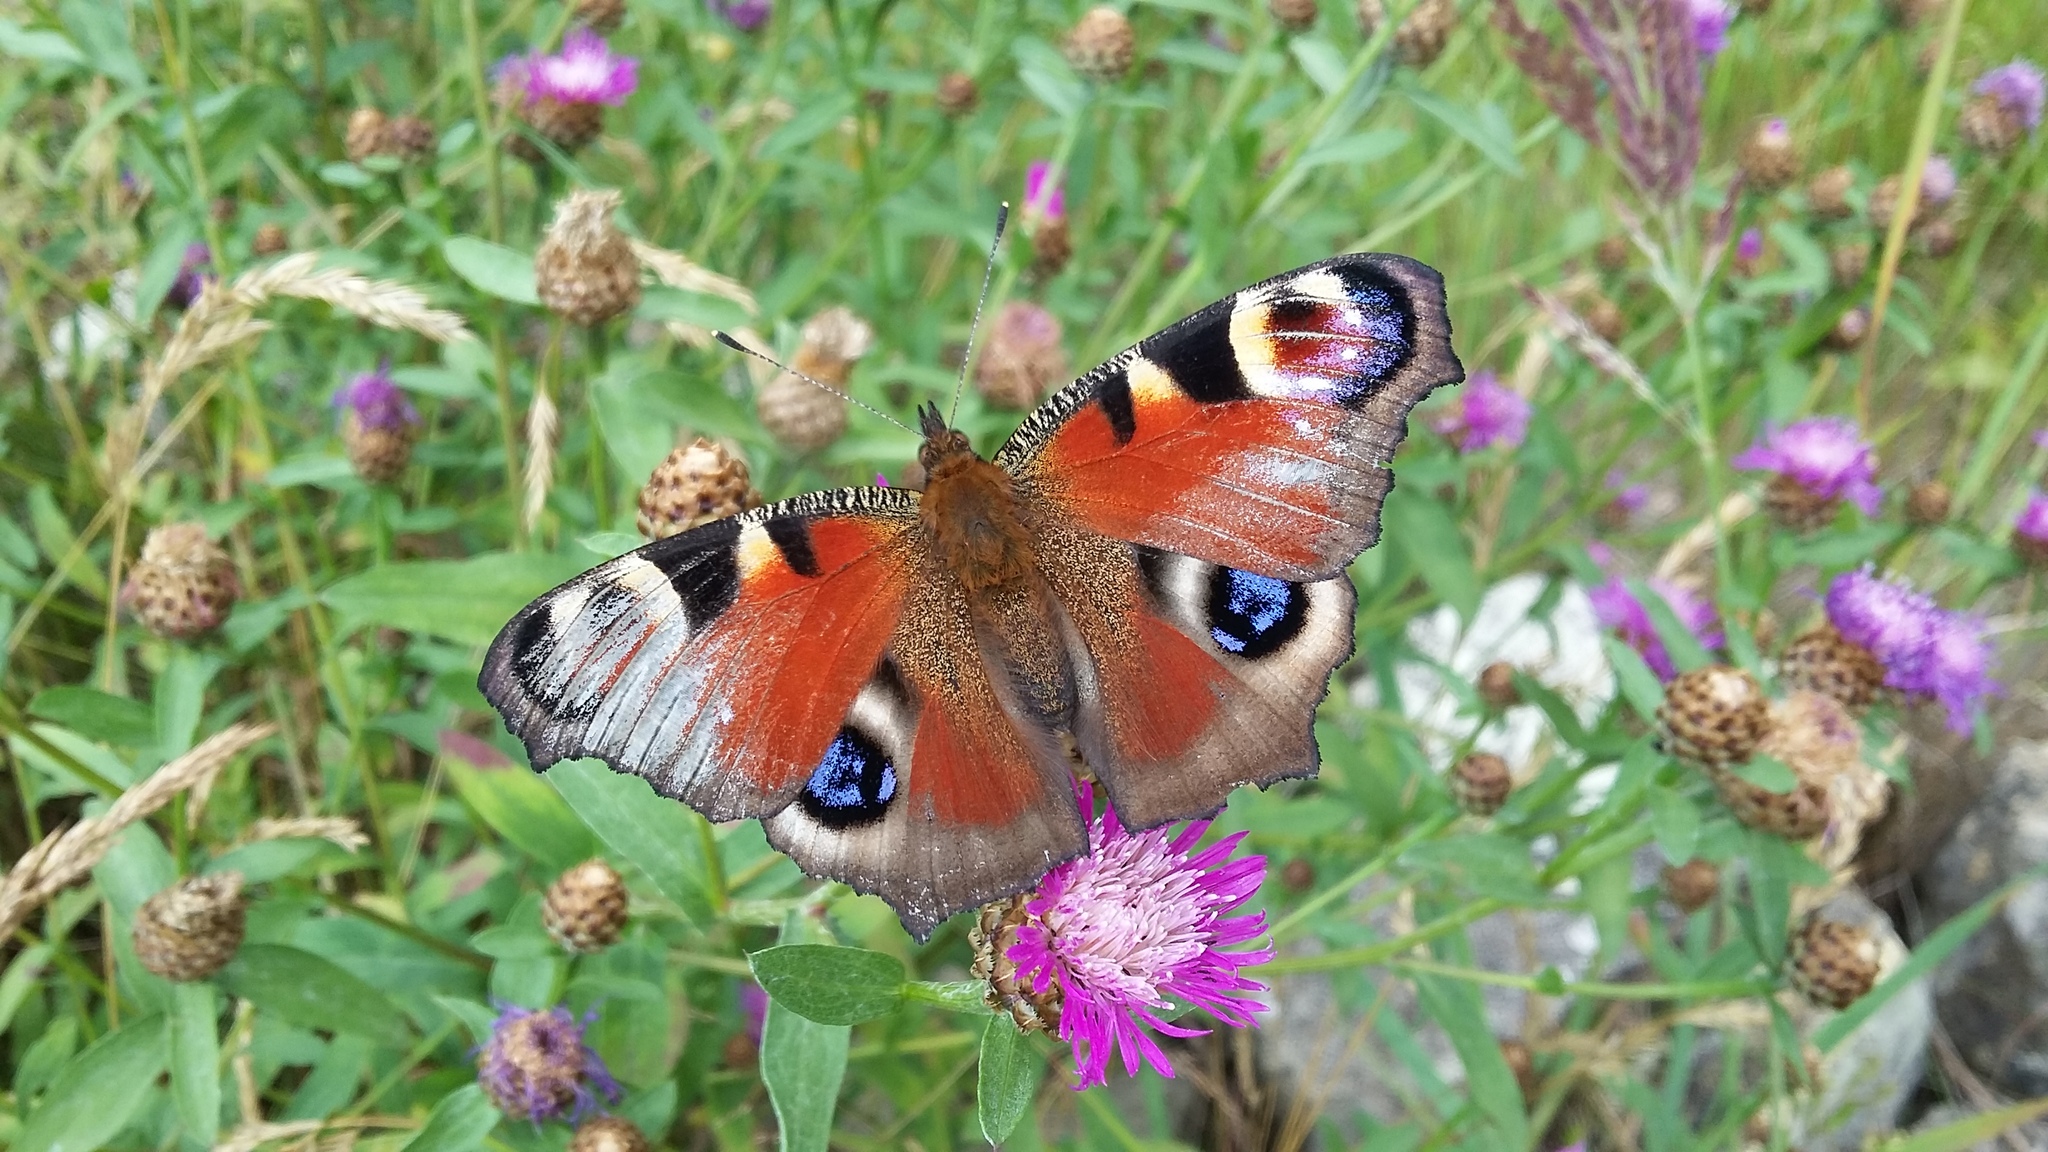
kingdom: Animalia
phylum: Arthropoda
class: Insecta
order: Lepidoptera
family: Nymphalidae
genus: Aglais
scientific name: Aglais io
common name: Peacock
